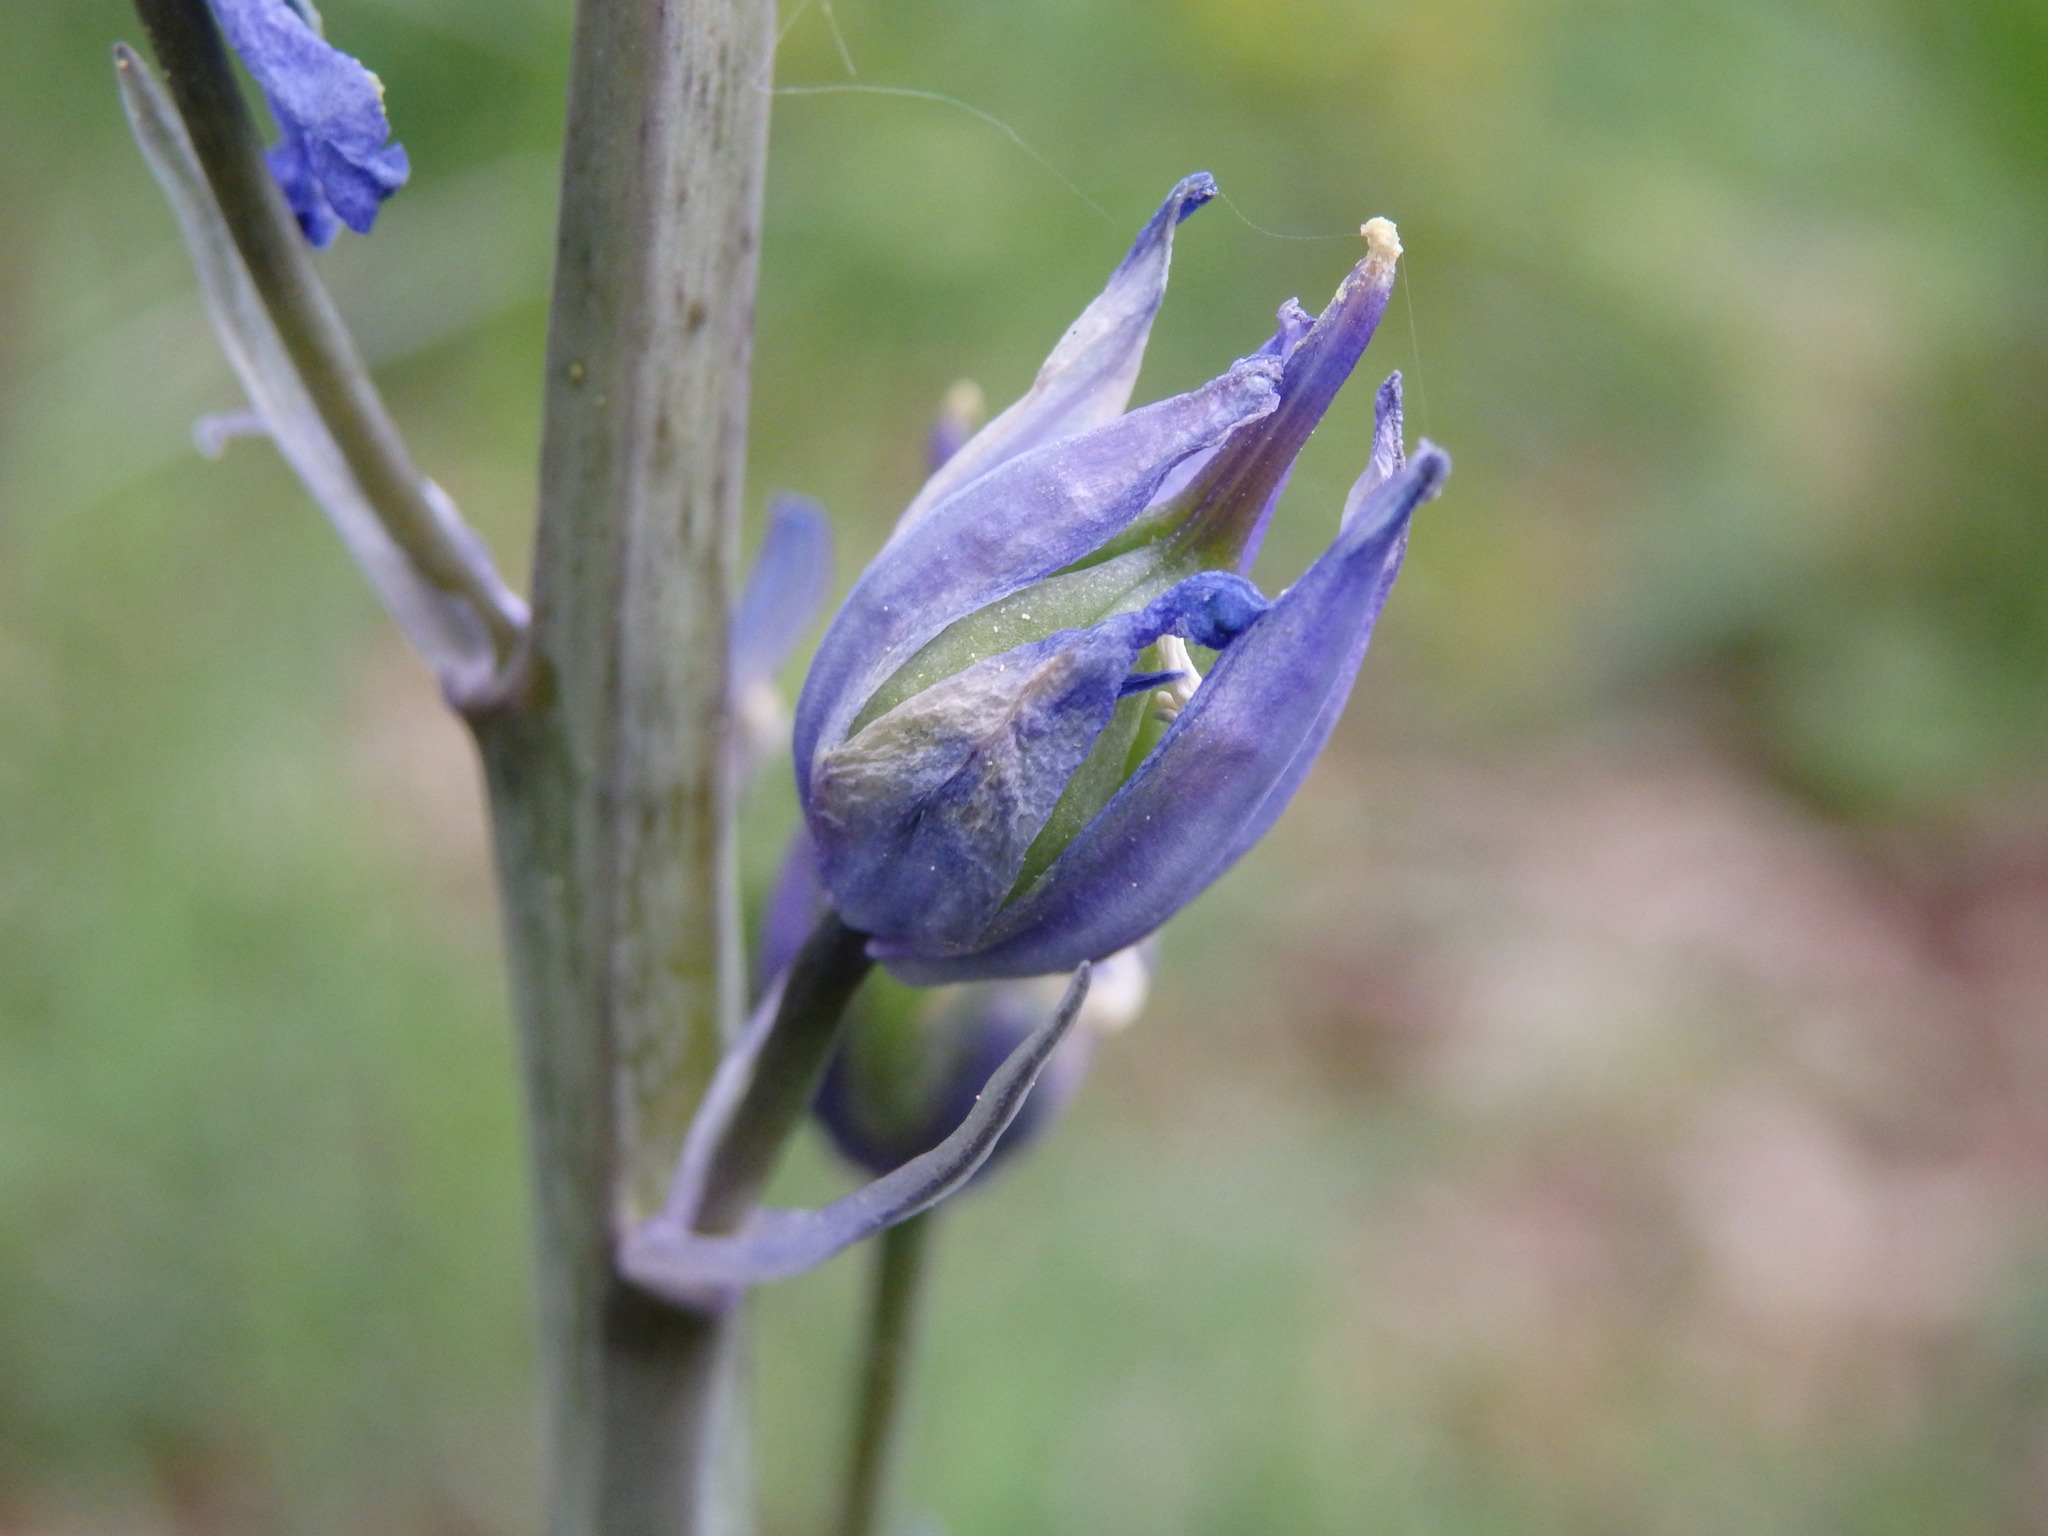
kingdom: Plantae
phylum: Tracheophyta
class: Liliopsida
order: Asparagales
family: Asparagaceae
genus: Hyacinthoides
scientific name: Hyacinthoides hispanica
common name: Spanish bluebell
